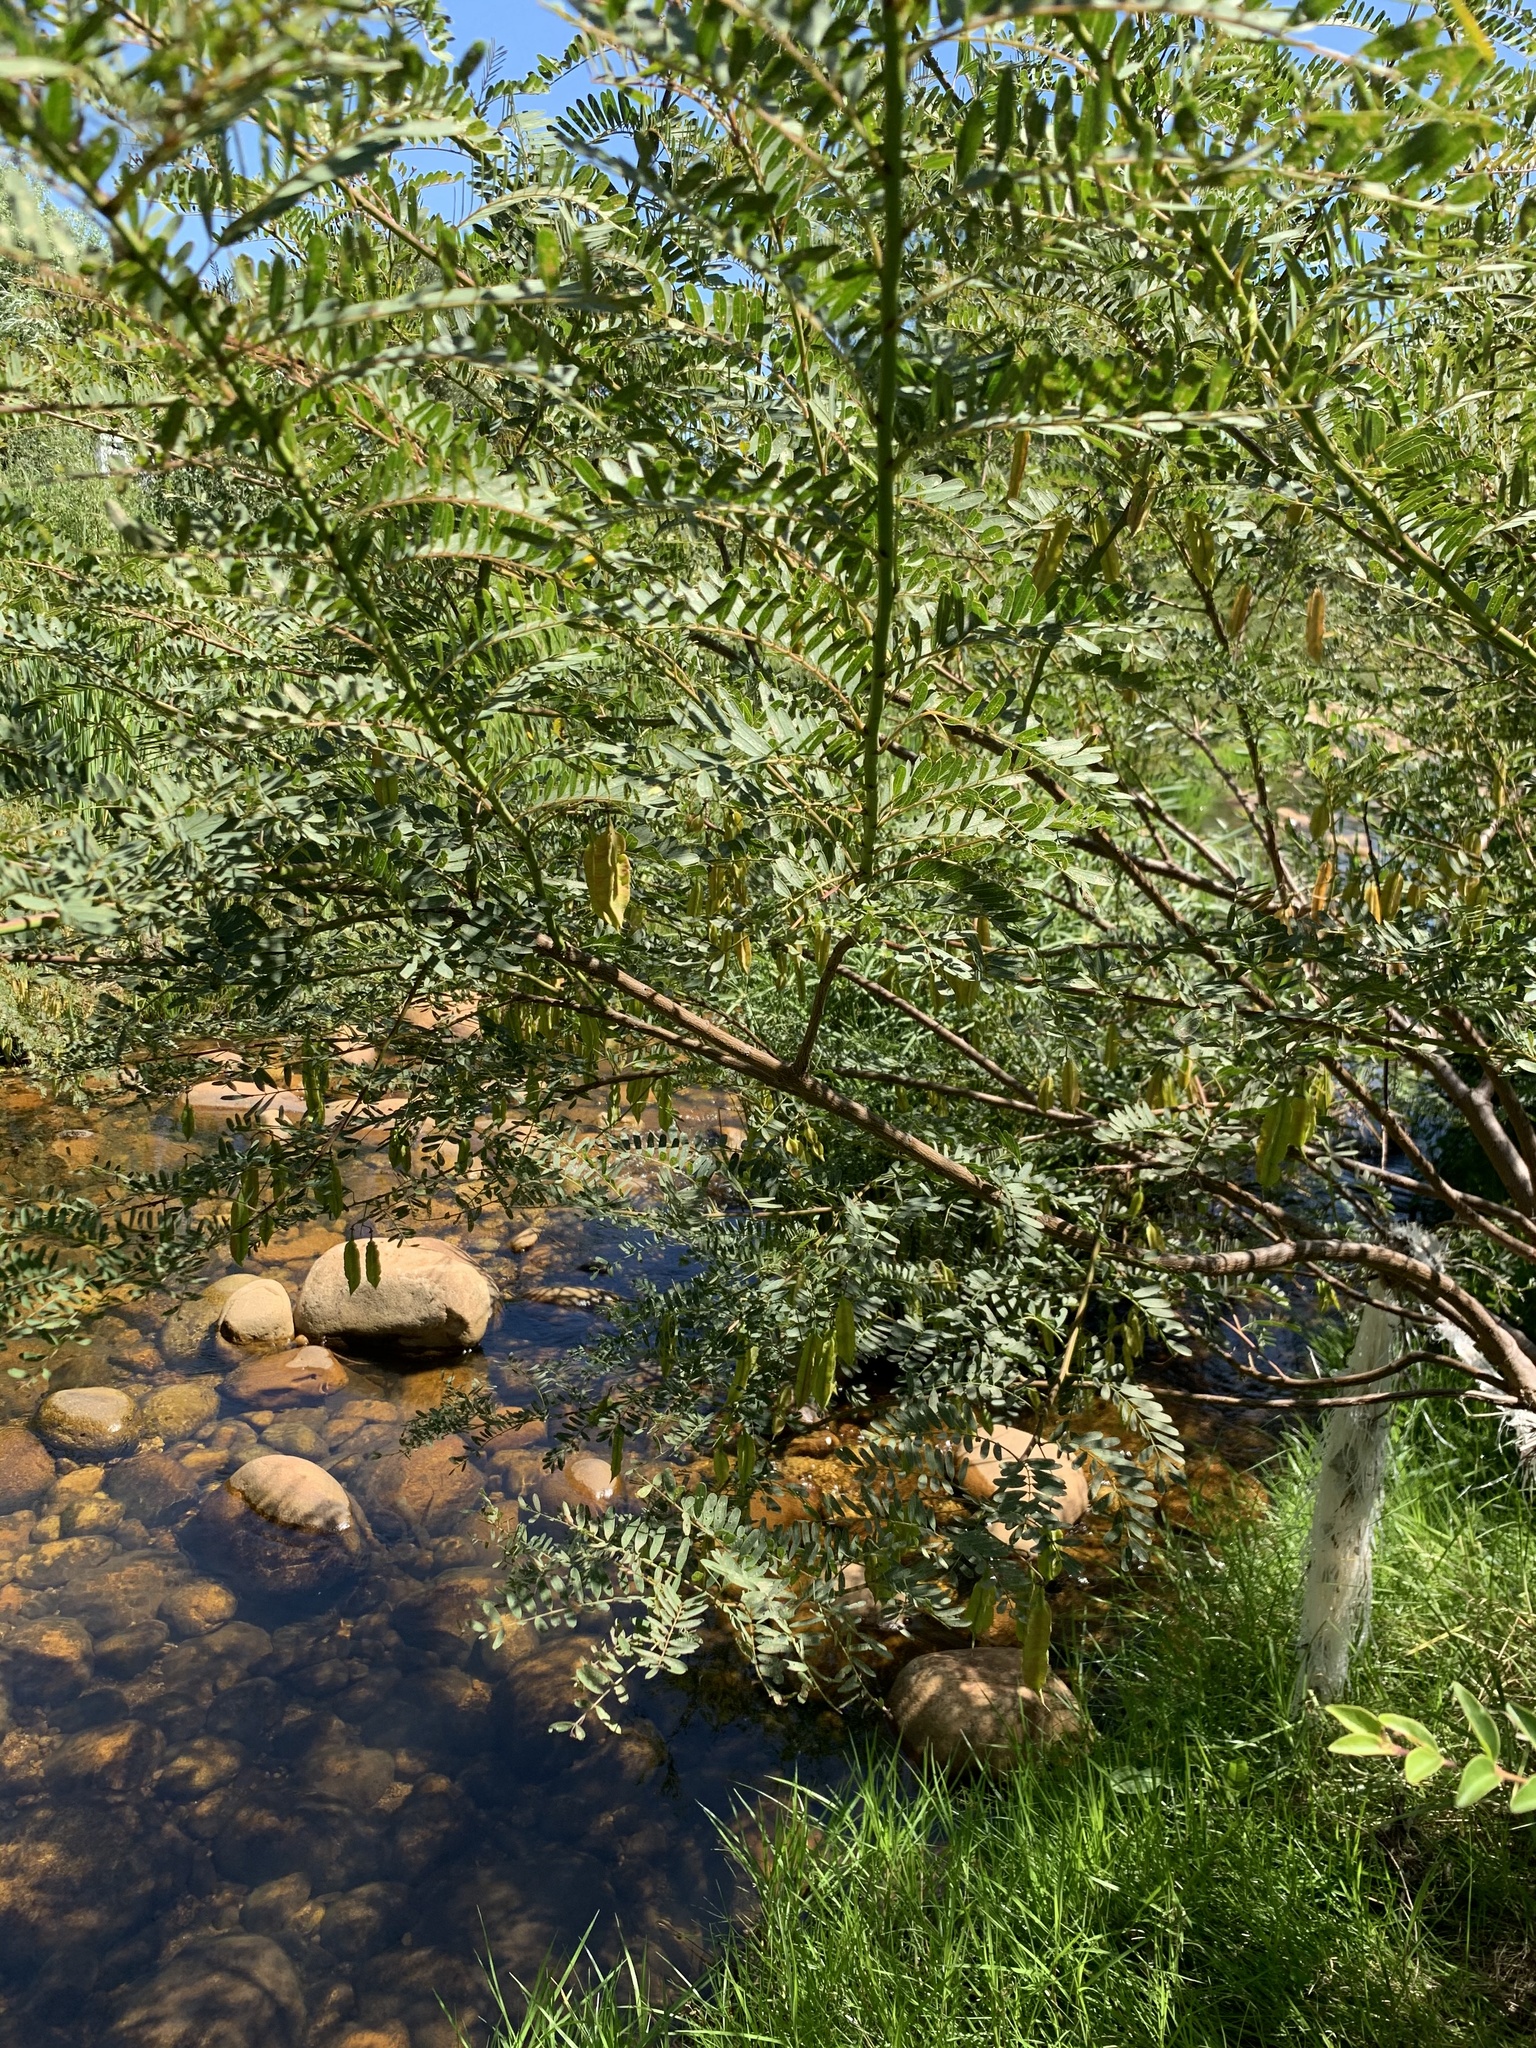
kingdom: Plantae
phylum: Tracheophyta
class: Magnoliopsida
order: Fabales
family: Fabaceae
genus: Sesbania
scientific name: Sesbania punicea
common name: Rattlebox
